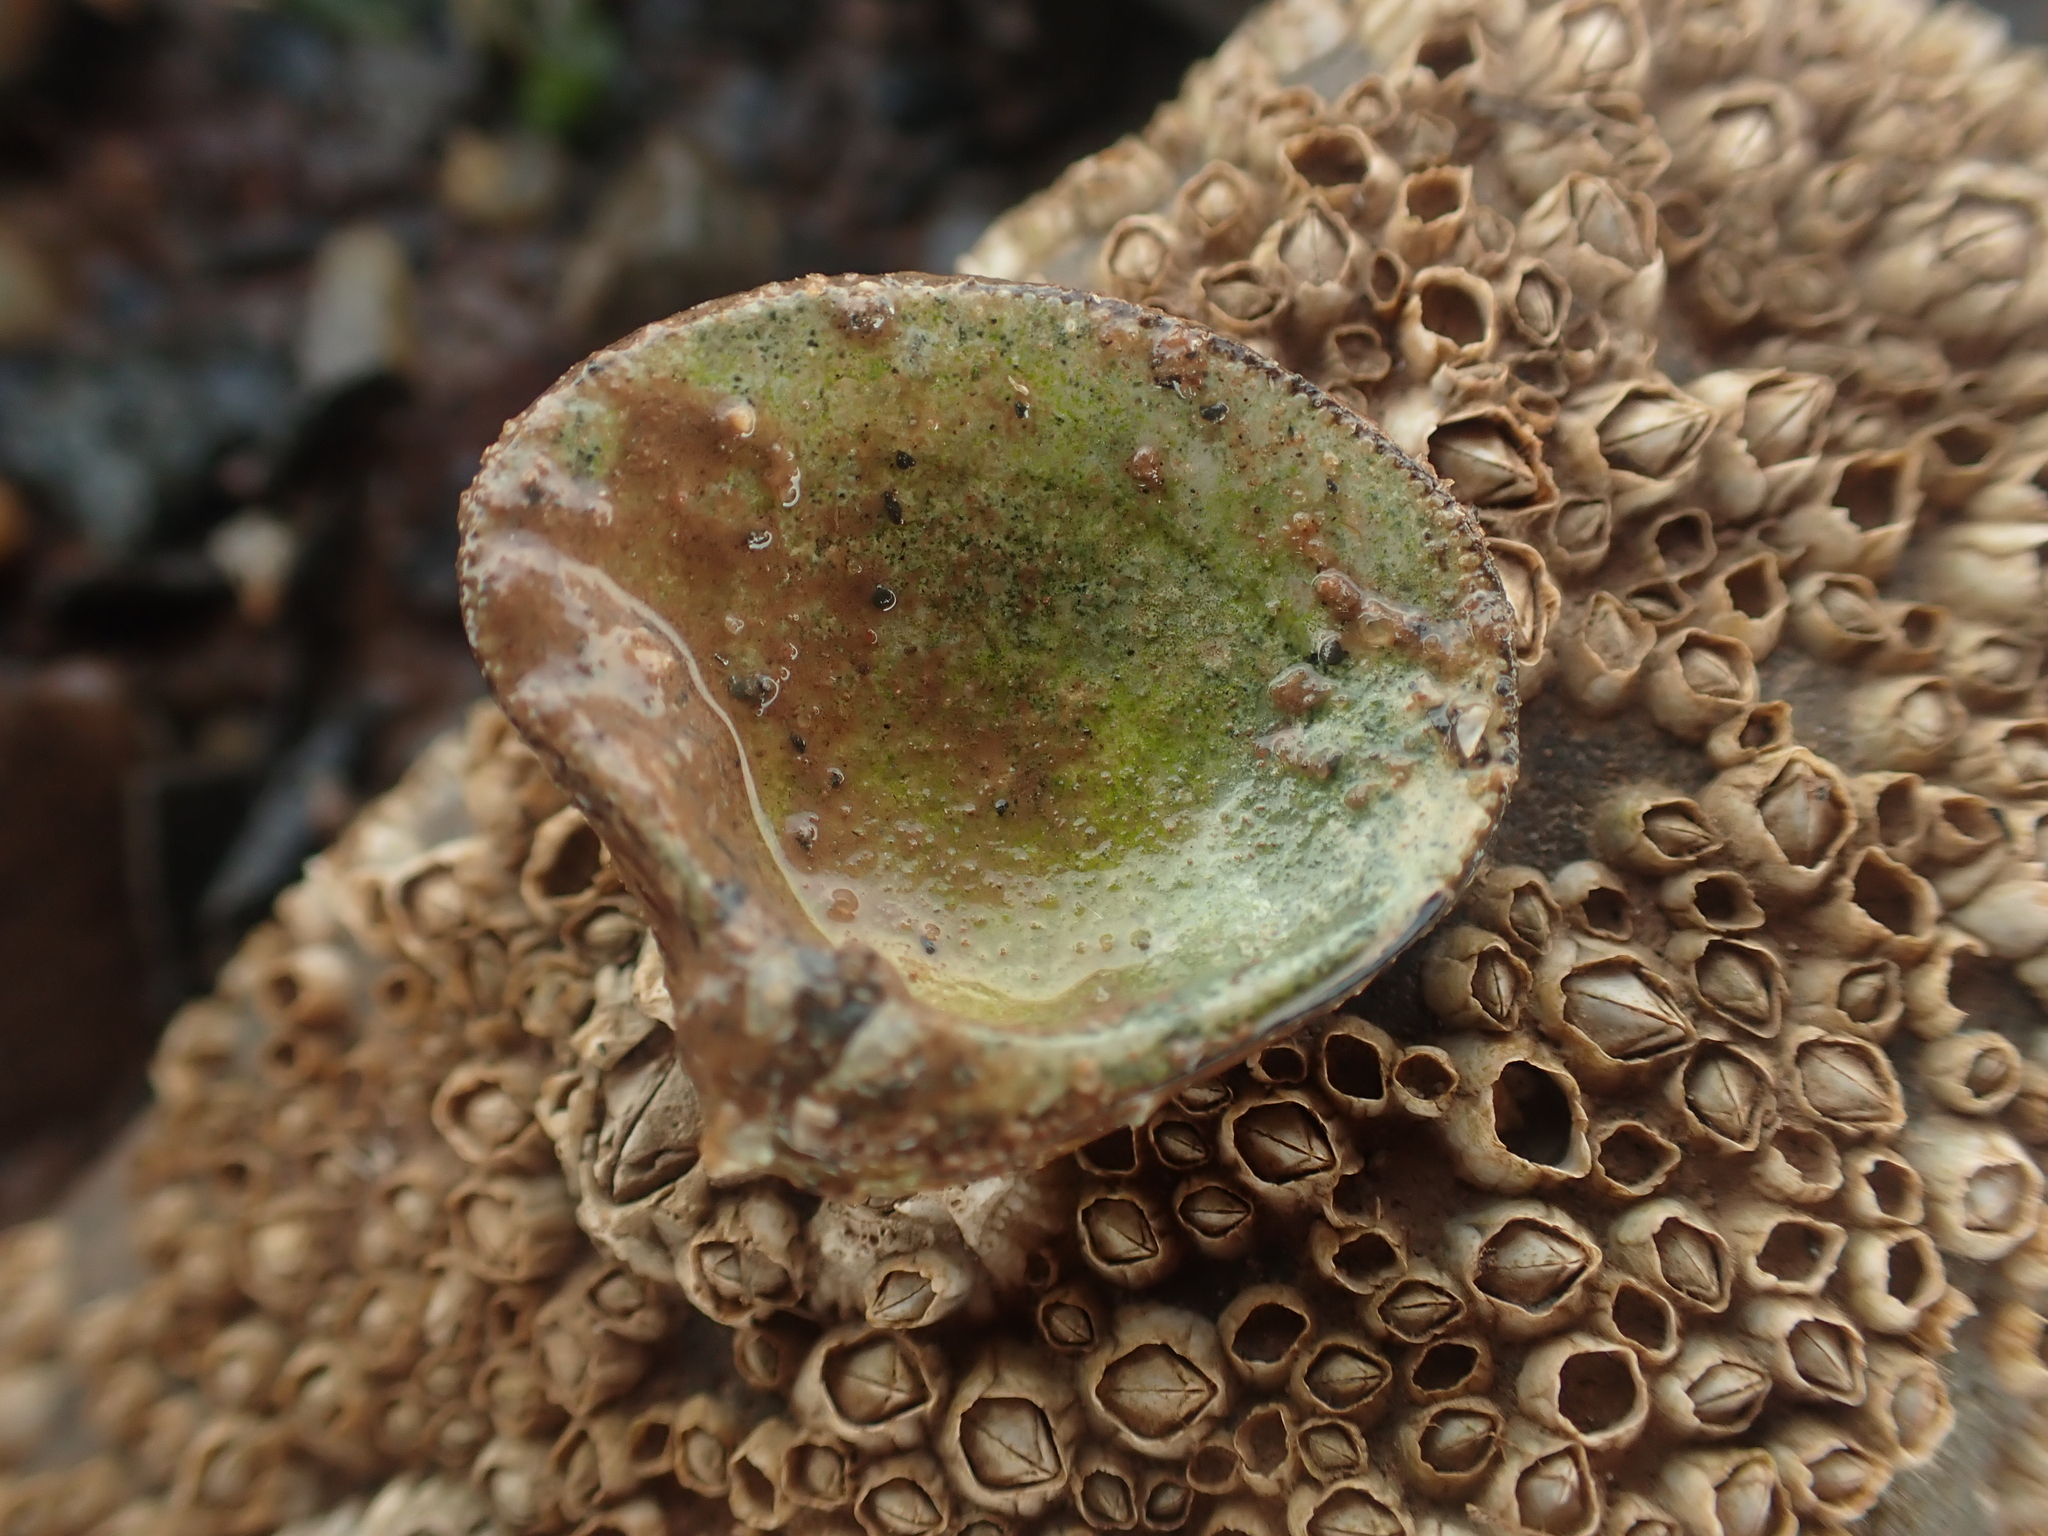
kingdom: Animalia
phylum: Mollusca
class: Bivalvia
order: Carditida
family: Astartidae
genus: Astarte
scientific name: Astarte undata
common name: Wavy astarte
